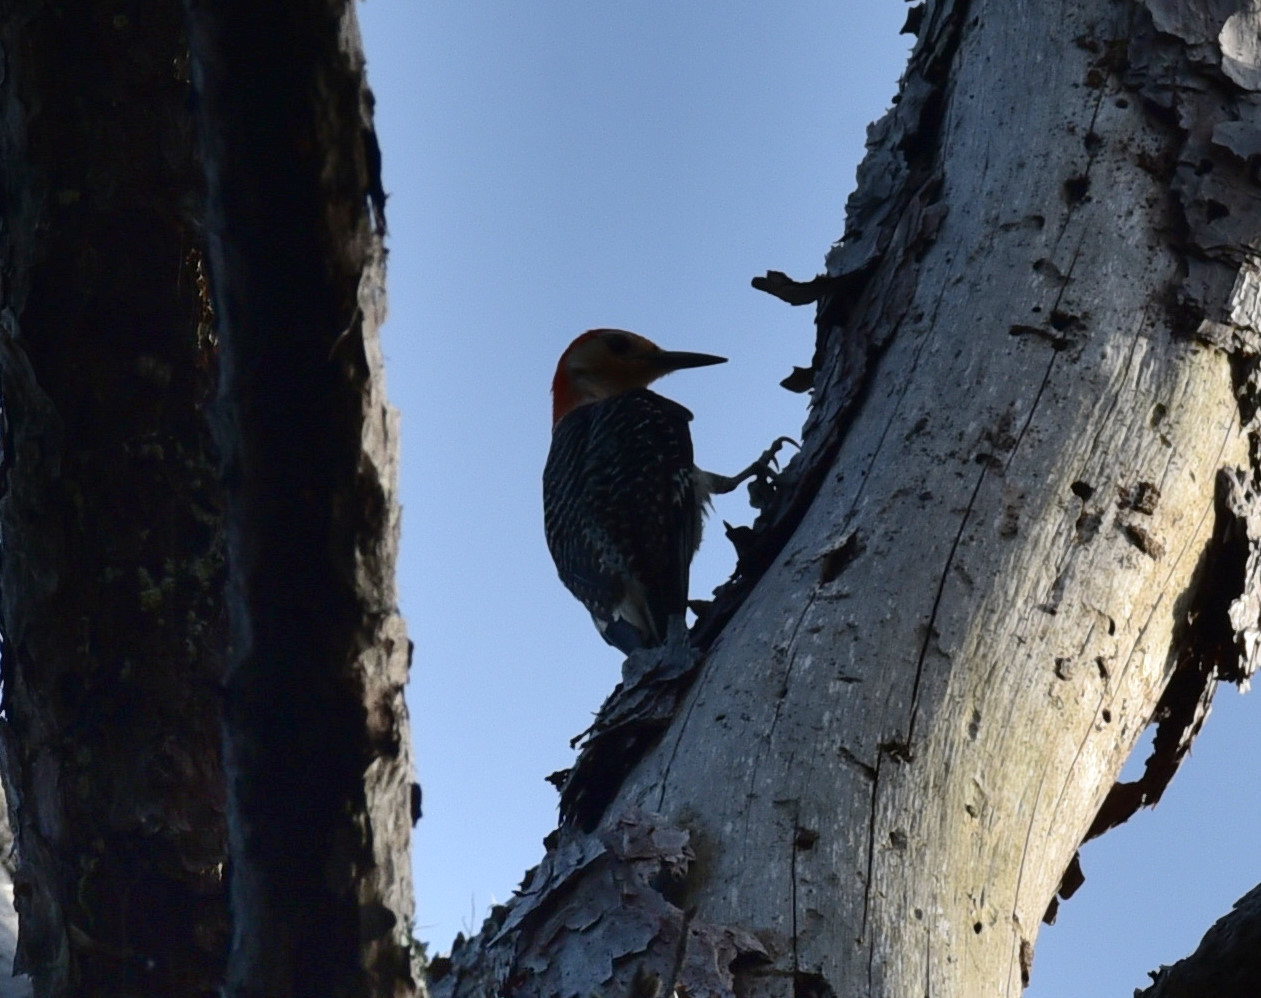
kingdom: Animalia
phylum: Chordata
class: Aves
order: Piciformes
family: Picidae
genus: Melanerpes
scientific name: Melanerpes carolinus
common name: Red-bellied woodpecker
